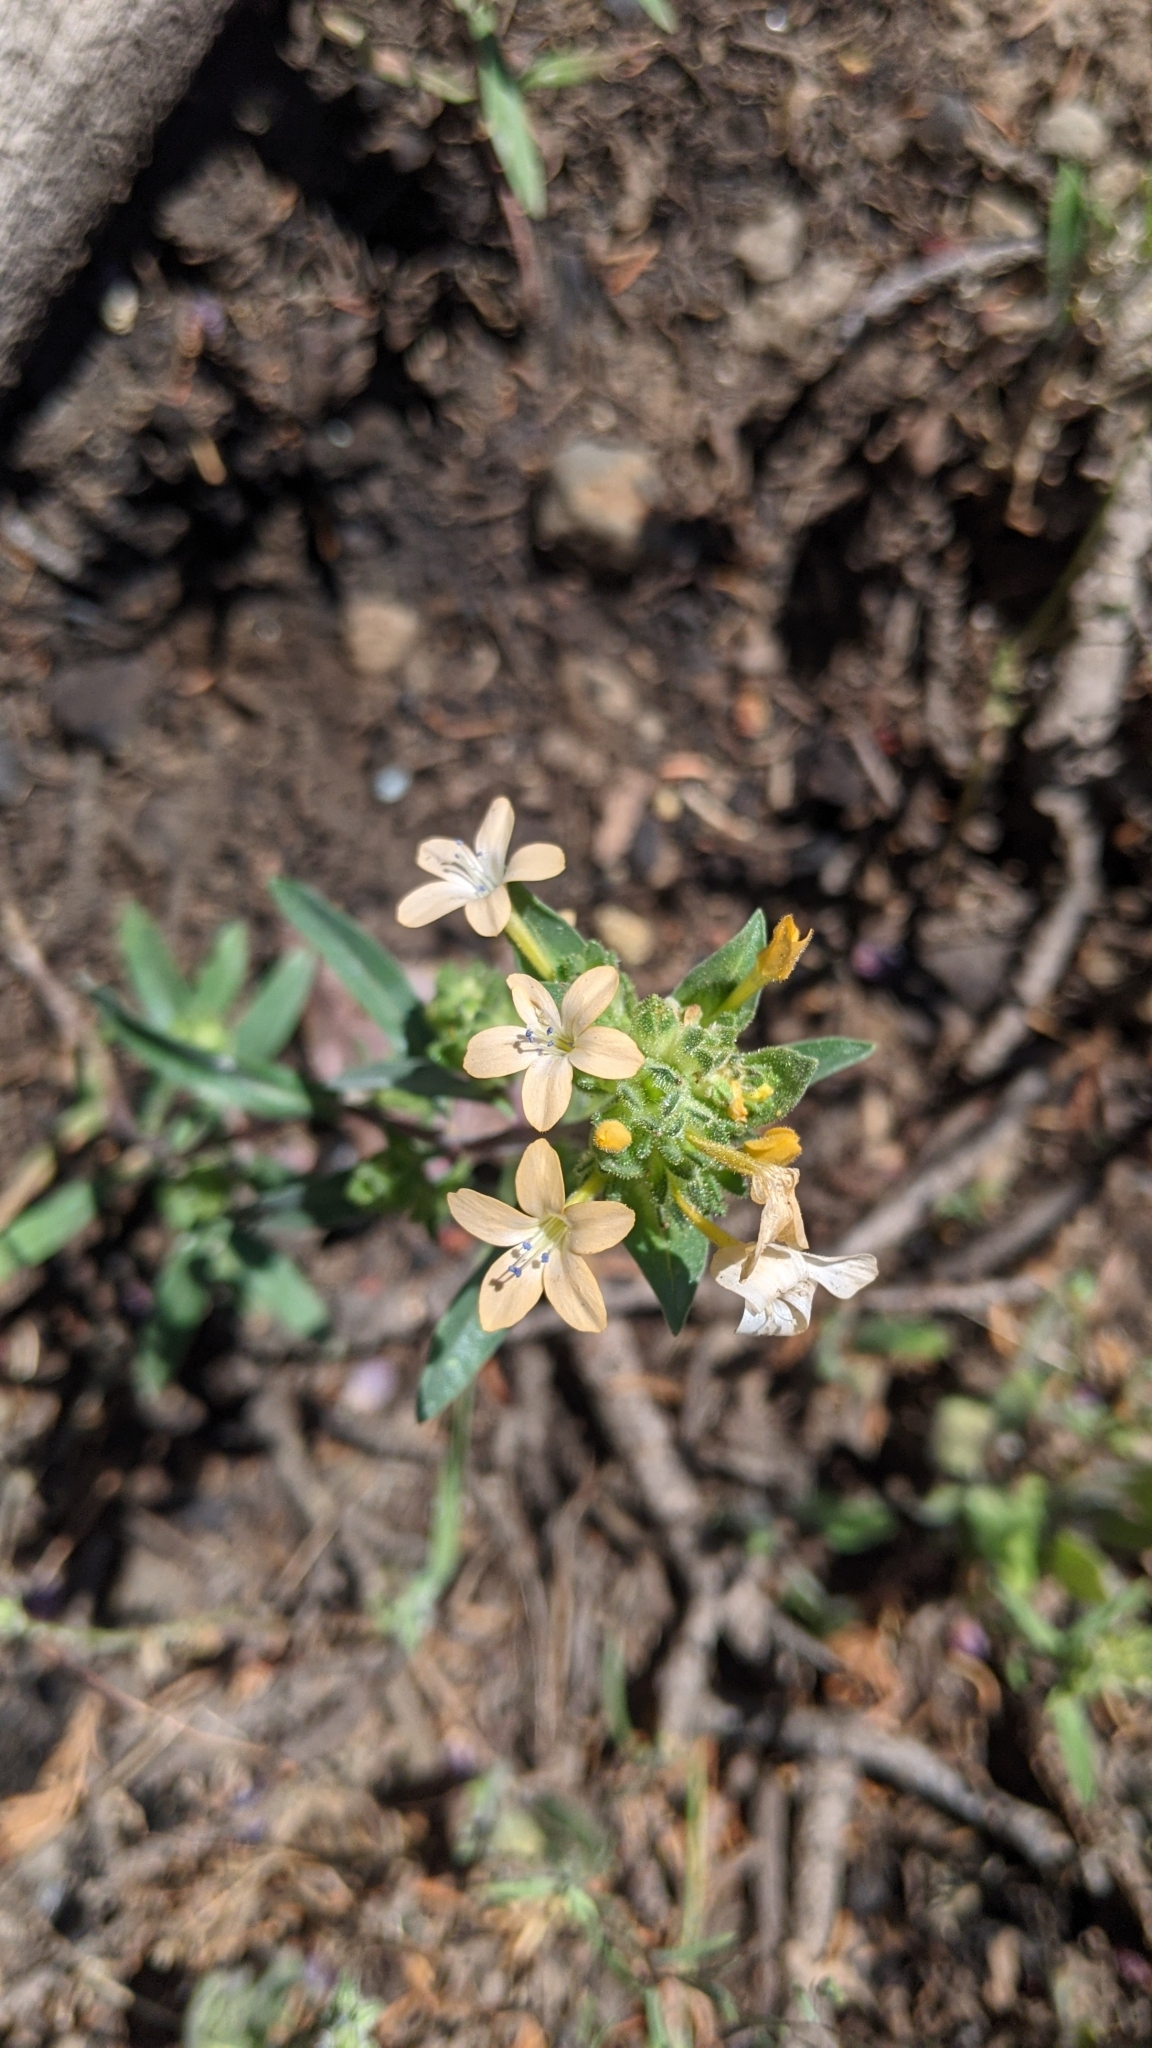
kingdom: Plantae
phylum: Tracheophyta
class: Magnoliopsida
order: Ericales
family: Polemoniaceae
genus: Collomia
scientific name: Collomia grandiflora
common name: California strawflower
